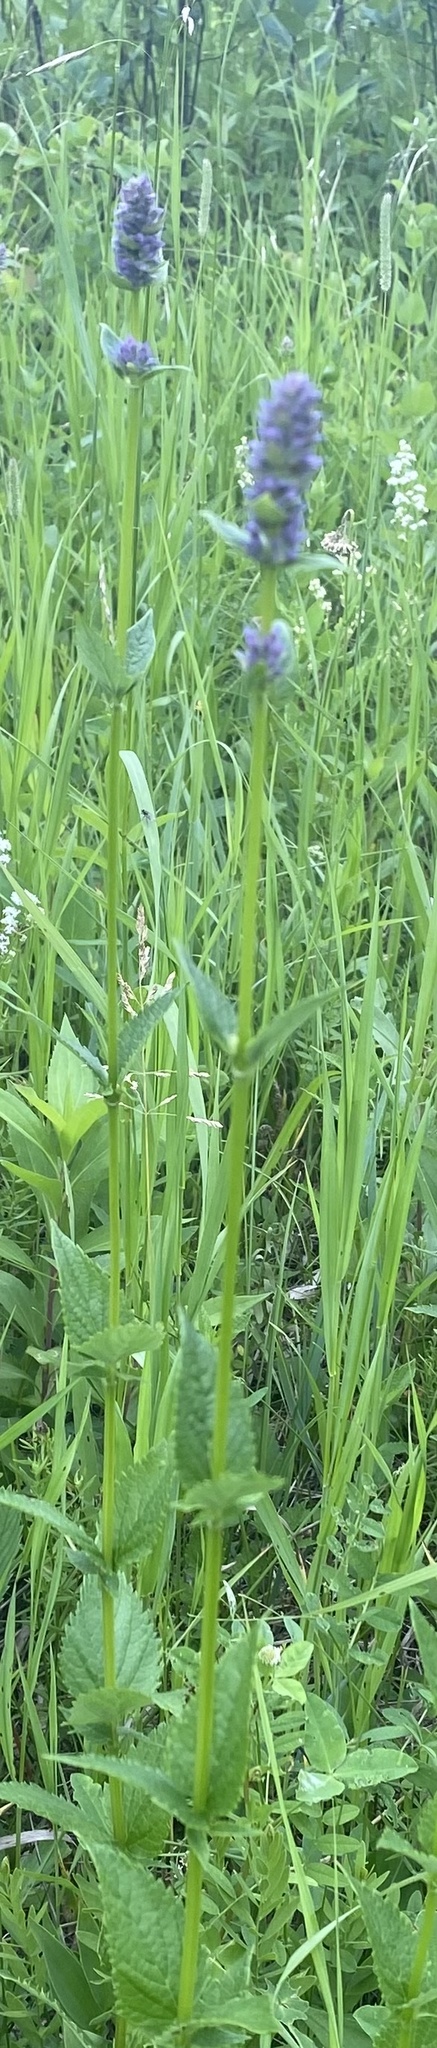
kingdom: Plantae
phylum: Tracheophyta
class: Magnoliopsida
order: Lamiales
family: Lamiaceae
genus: Agastache
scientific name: Agastache foeniculum
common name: Anise hyssop
